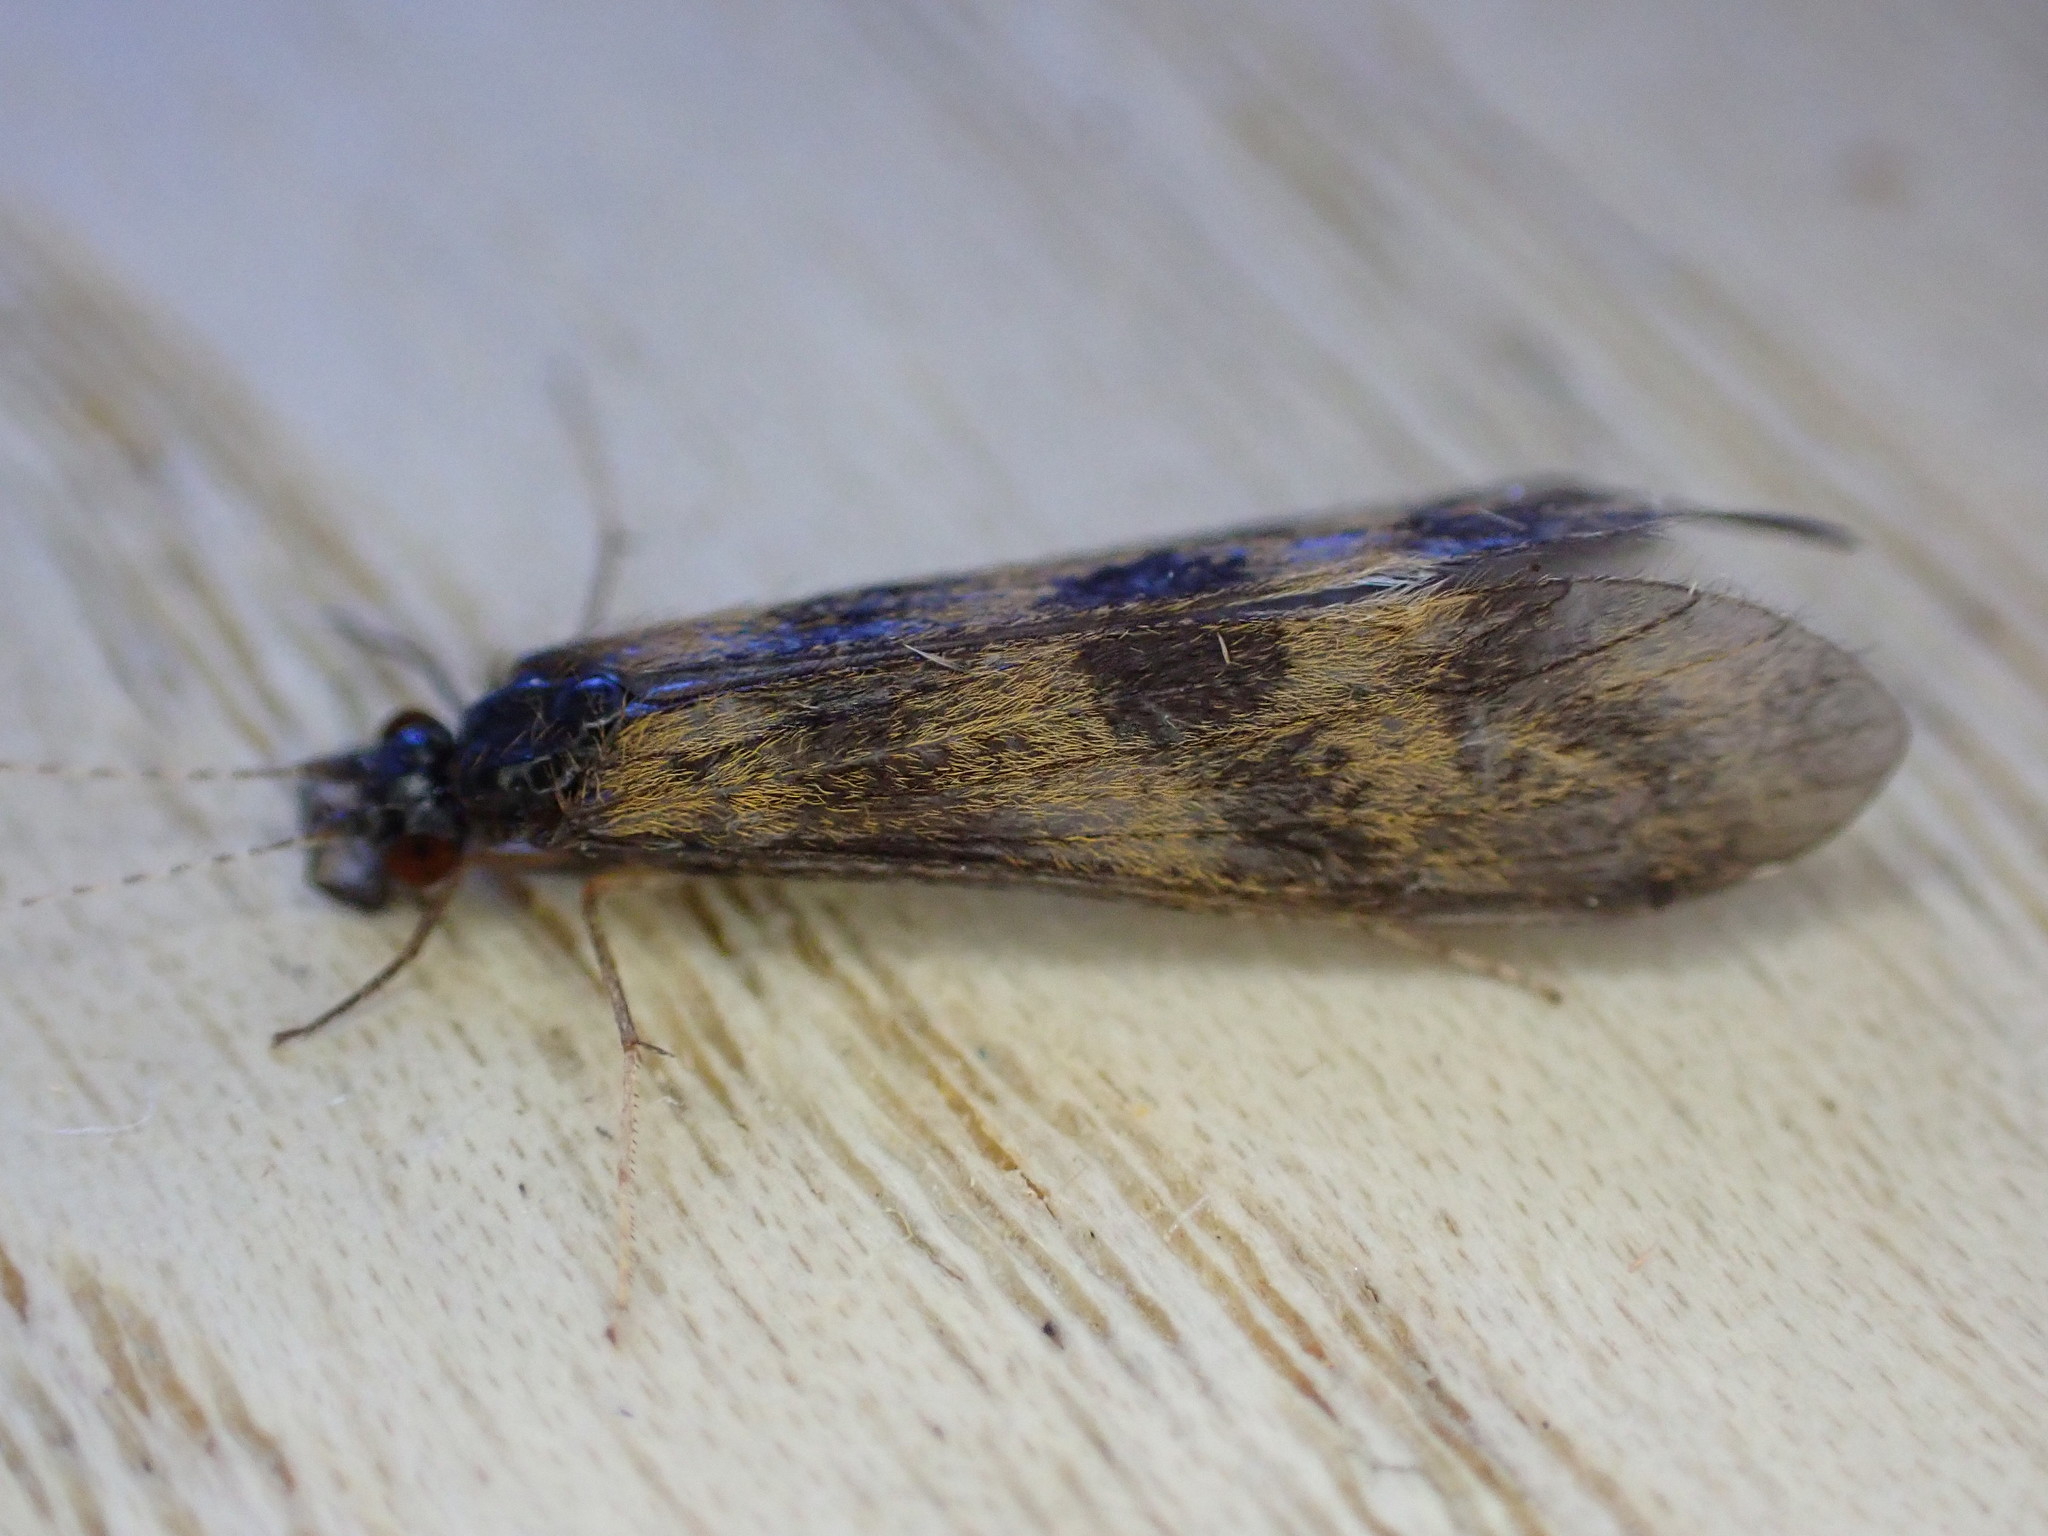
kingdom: Animalia
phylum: Arthropoda
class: Insecta
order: Trichoptera
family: Leptoceridae
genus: Mystacides
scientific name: Mystacides longicornis
